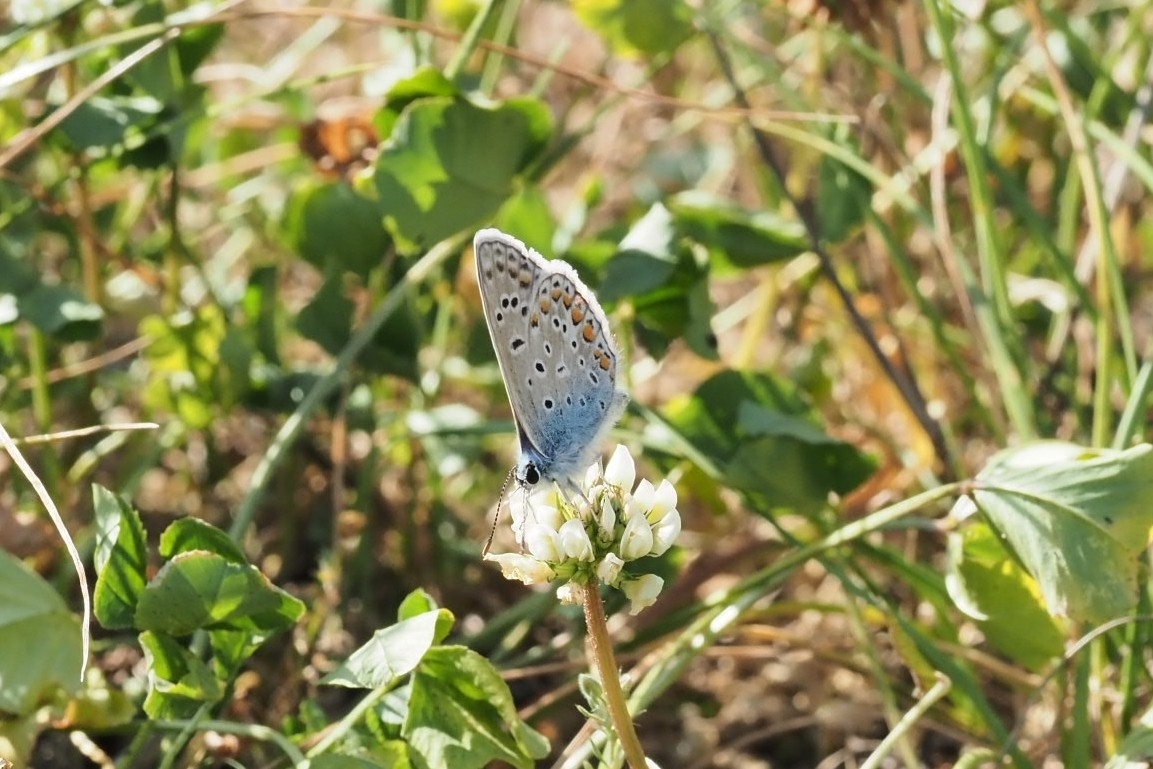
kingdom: Animalia
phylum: Arthropoda
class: Insecta
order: Lepidoptera
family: Lycaenidae
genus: Polyommatus
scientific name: Polyommatus icarus
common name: Common blue
